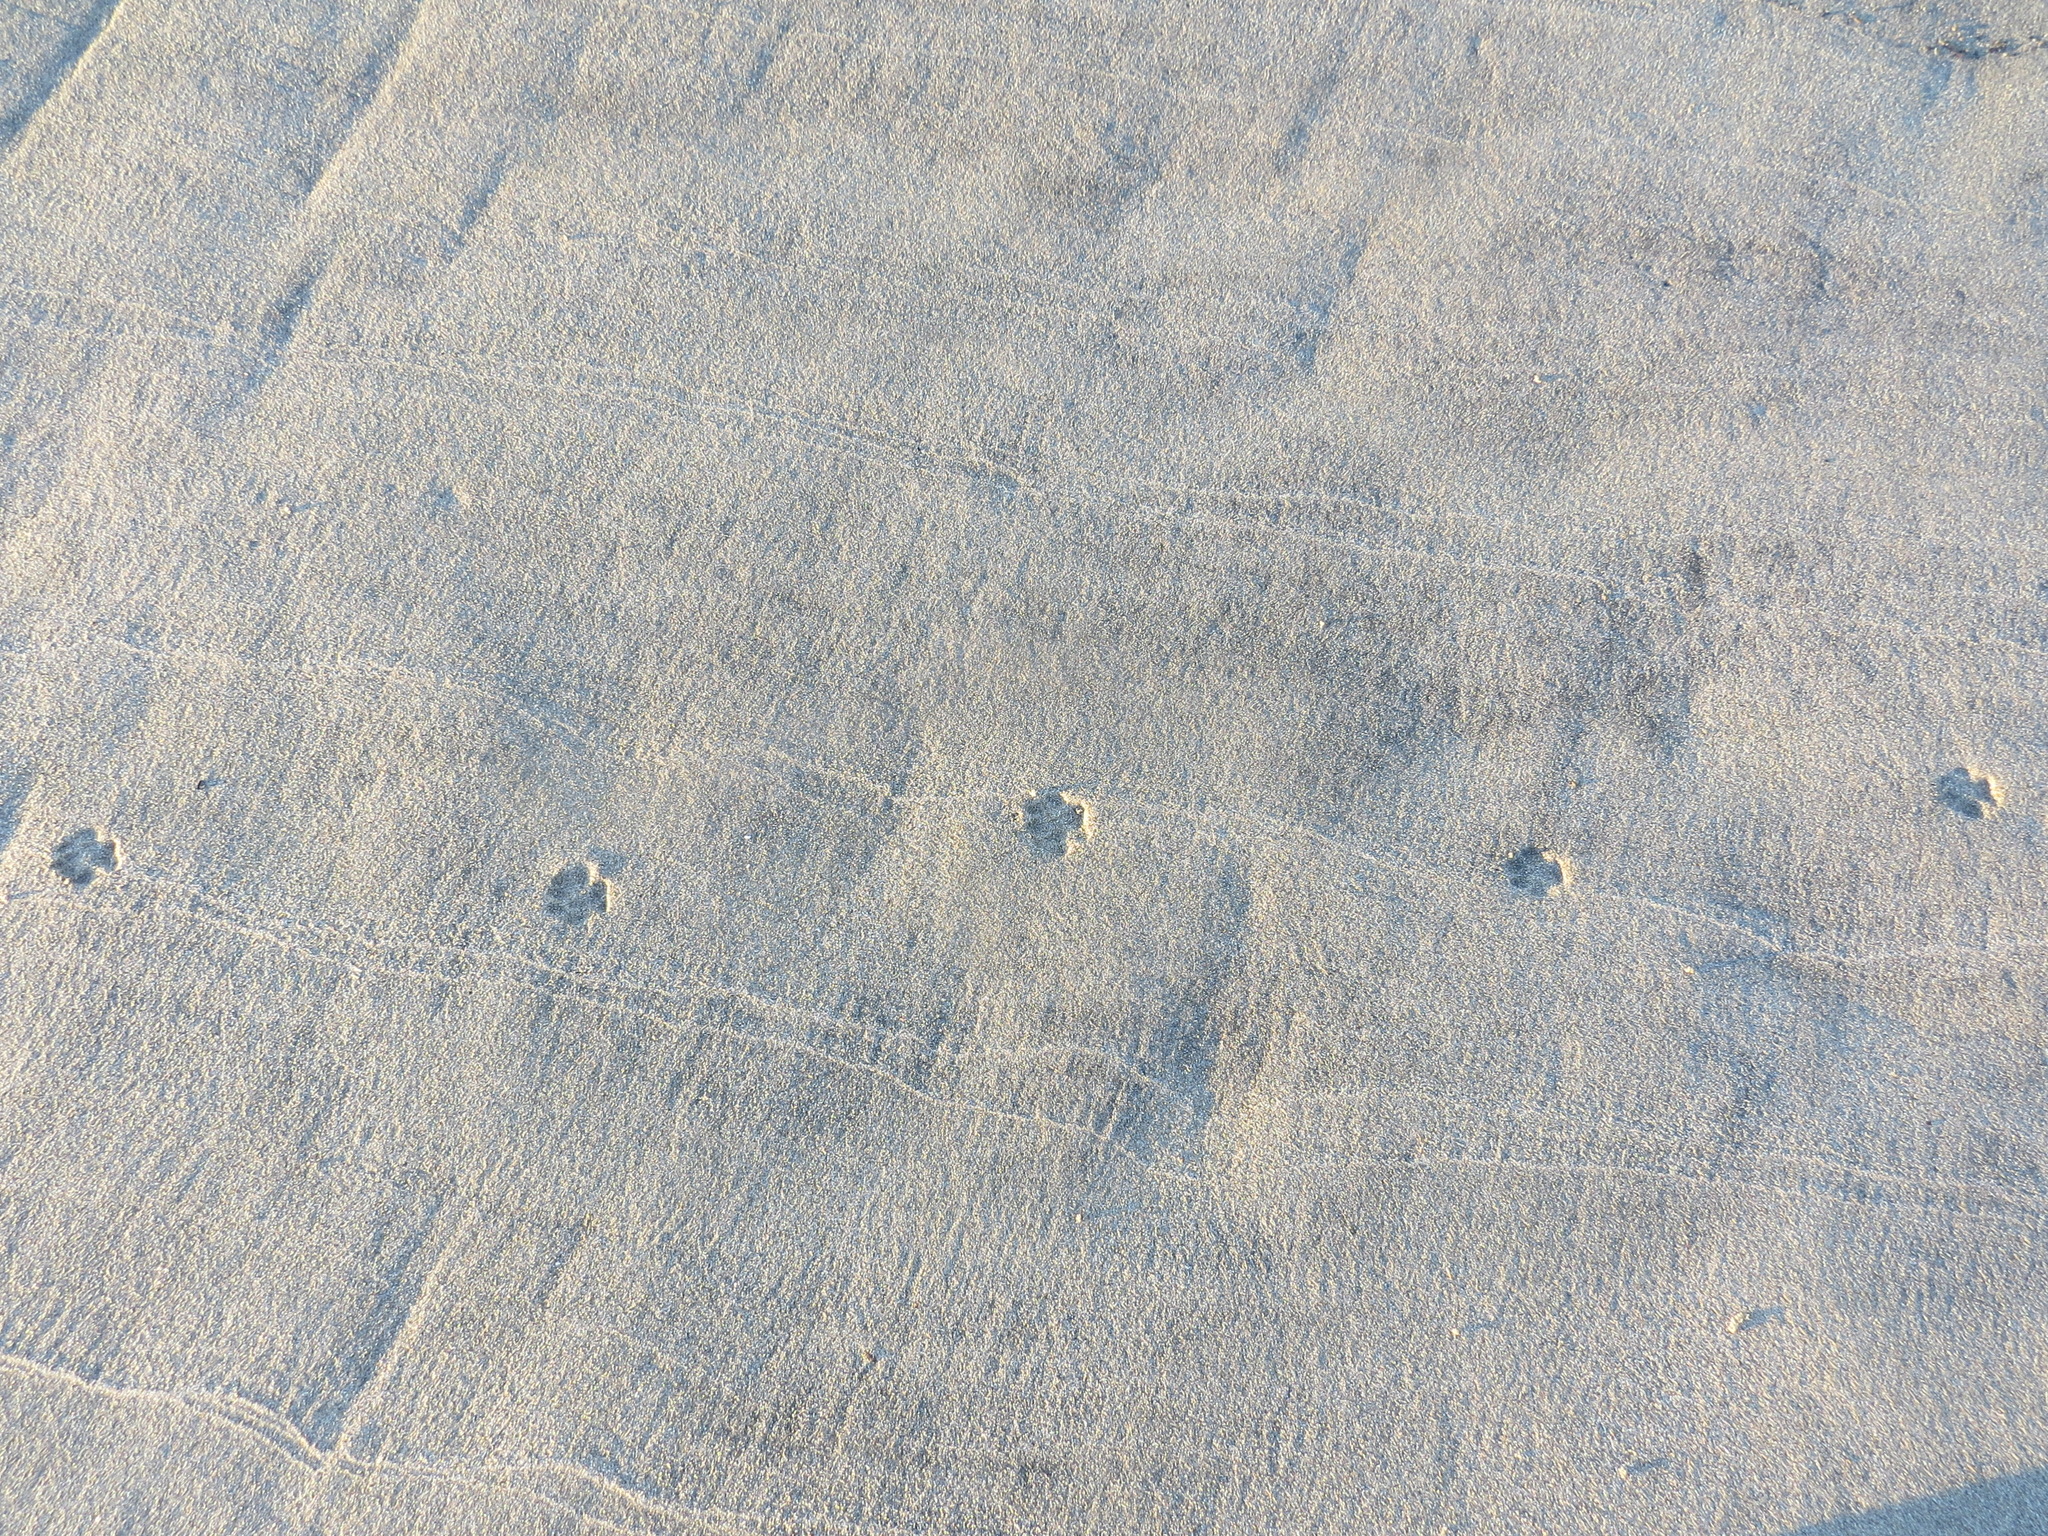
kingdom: Animalia
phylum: Chordata
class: Mammalia
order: Carnivora
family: Canidae
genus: Urocyon
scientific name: Urocyon cinereoargenteus
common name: Gray fox
